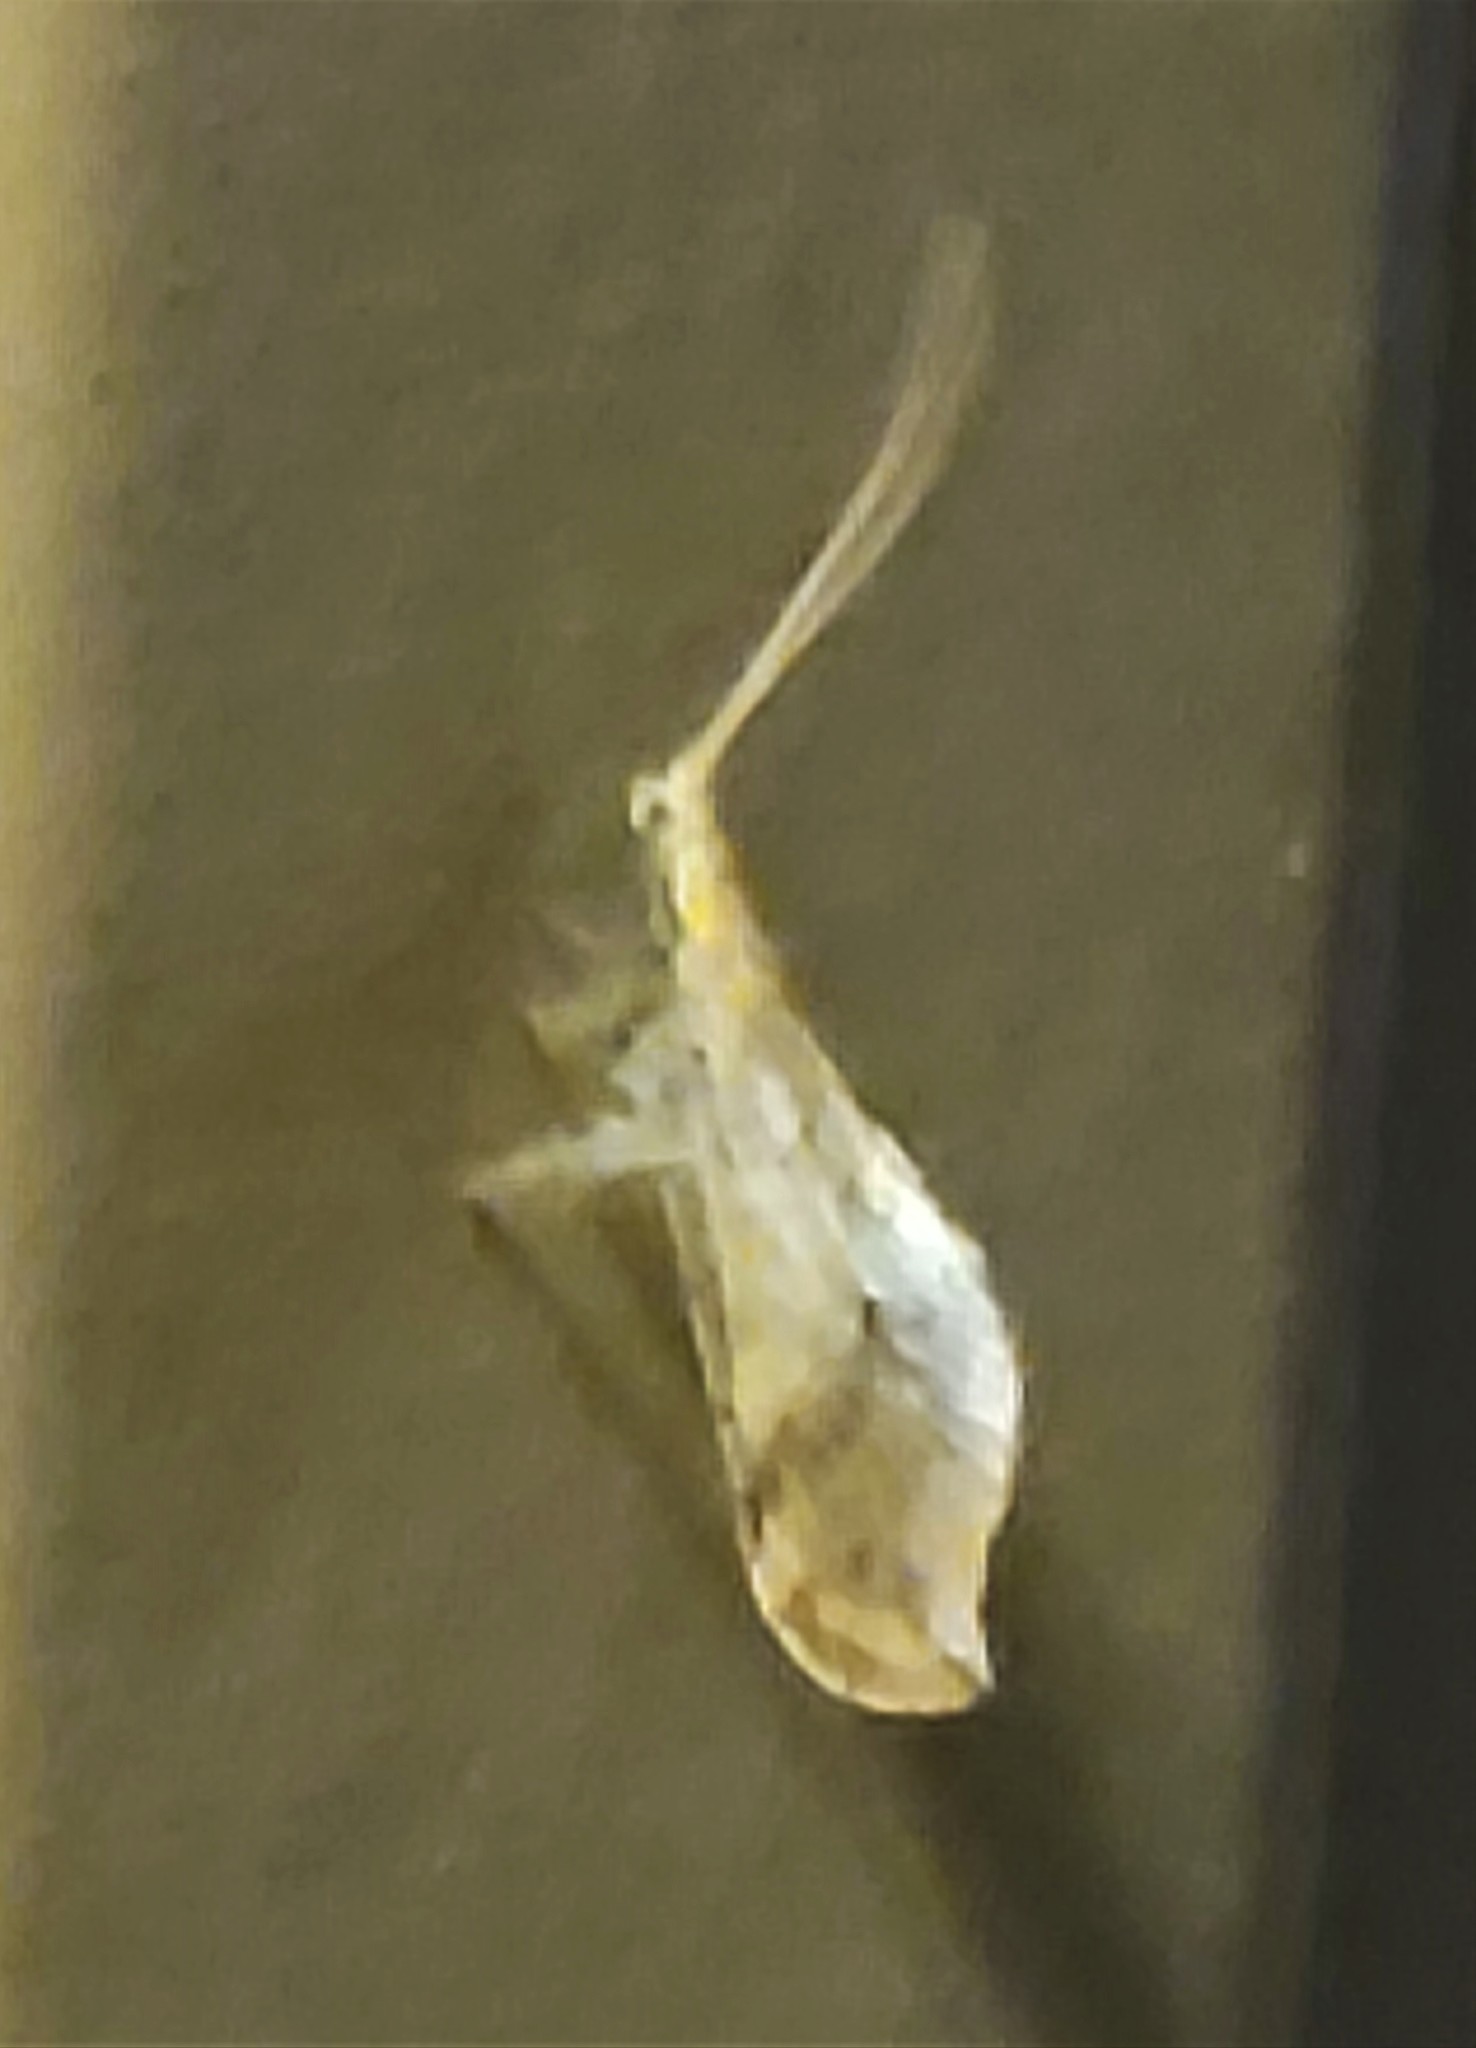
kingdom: Animalia
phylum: Arthropoda
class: Insecta
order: Neuroptera
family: Berothidae
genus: Lomamyia
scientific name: Lomamyia squamosa
